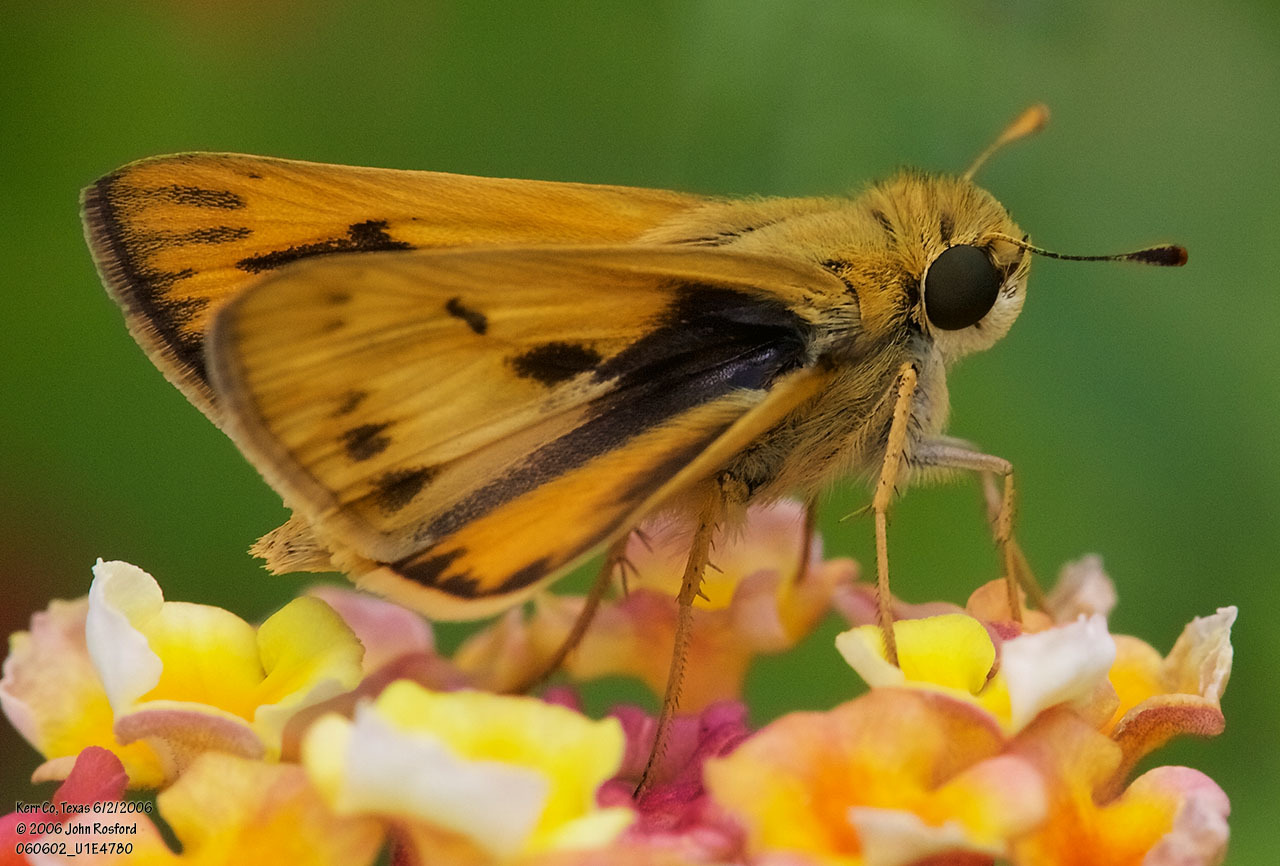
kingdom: Animalia
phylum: Arthropoda
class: Insecta
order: Lepidoptera
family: Hesperiidae
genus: Hylephila
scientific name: Hylephila phyleus
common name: Fiery skipper
